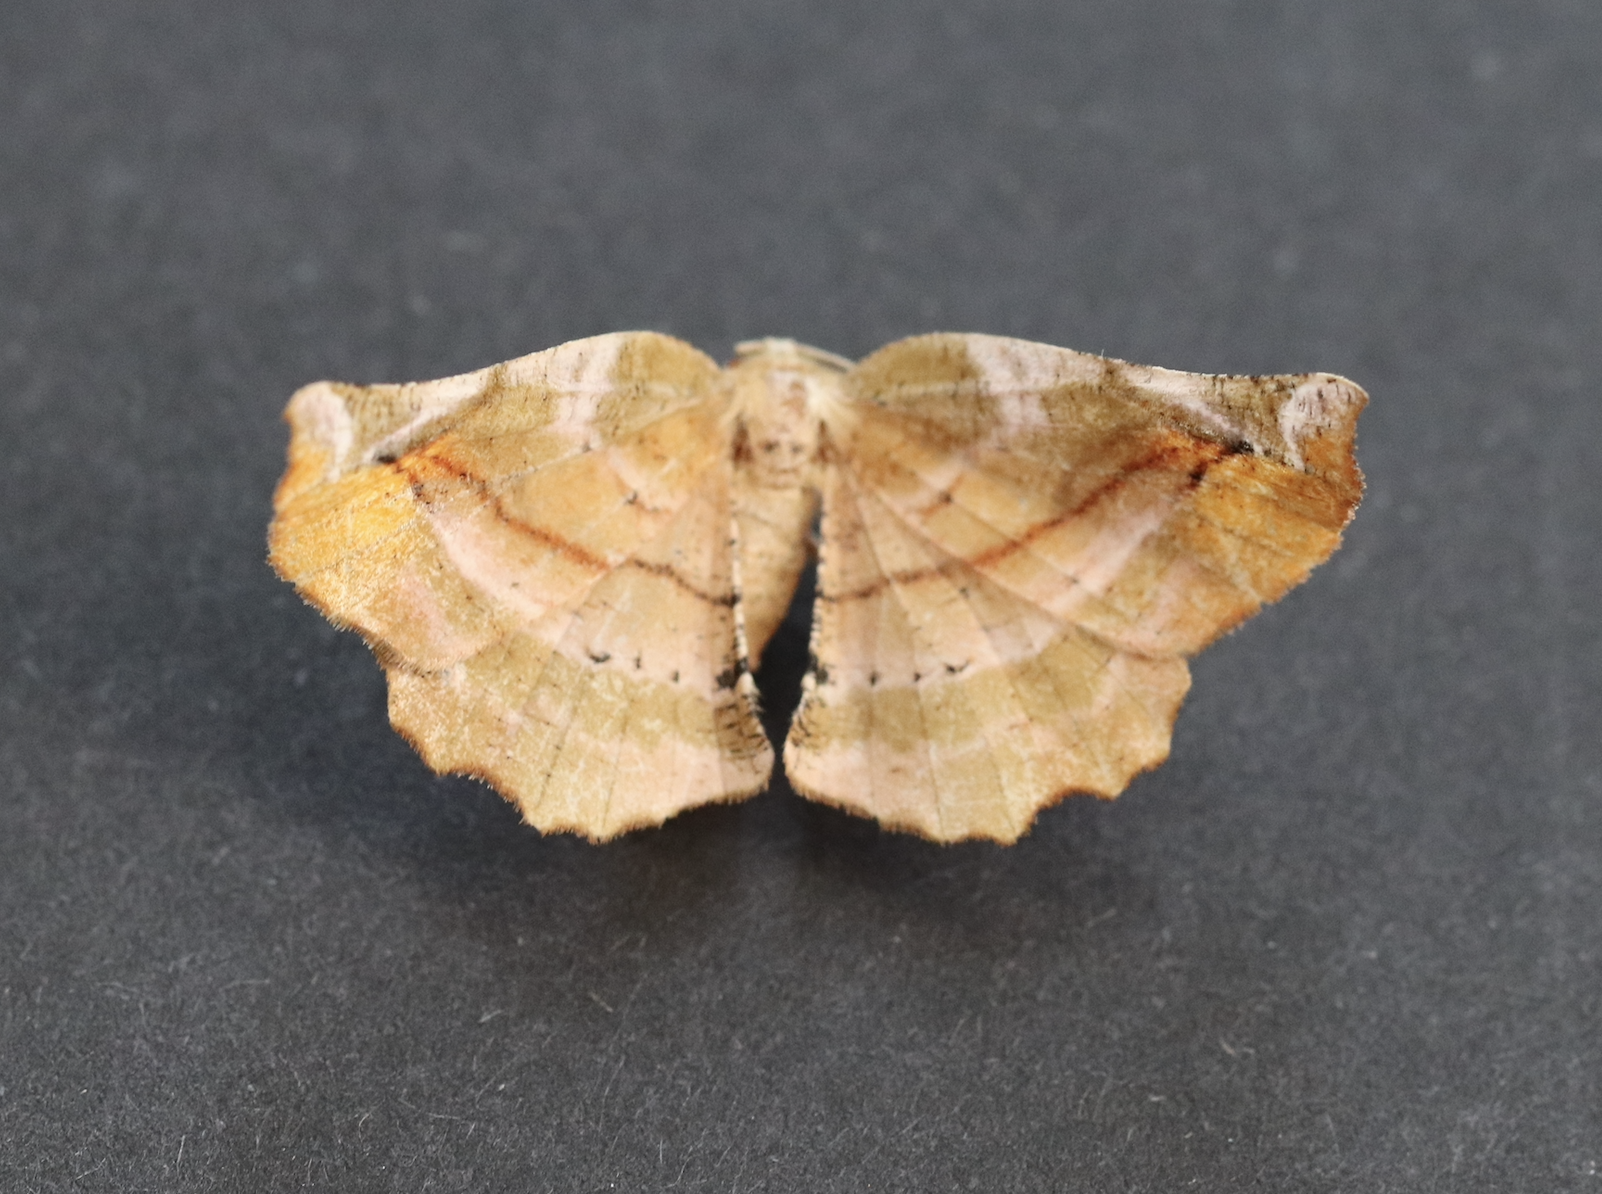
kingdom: Animalia
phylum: Arthropoda
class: Insecta
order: Lepidoptera
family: Geometridae
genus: Apeira
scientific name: Apeira syringaria
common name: Lilac beauty
